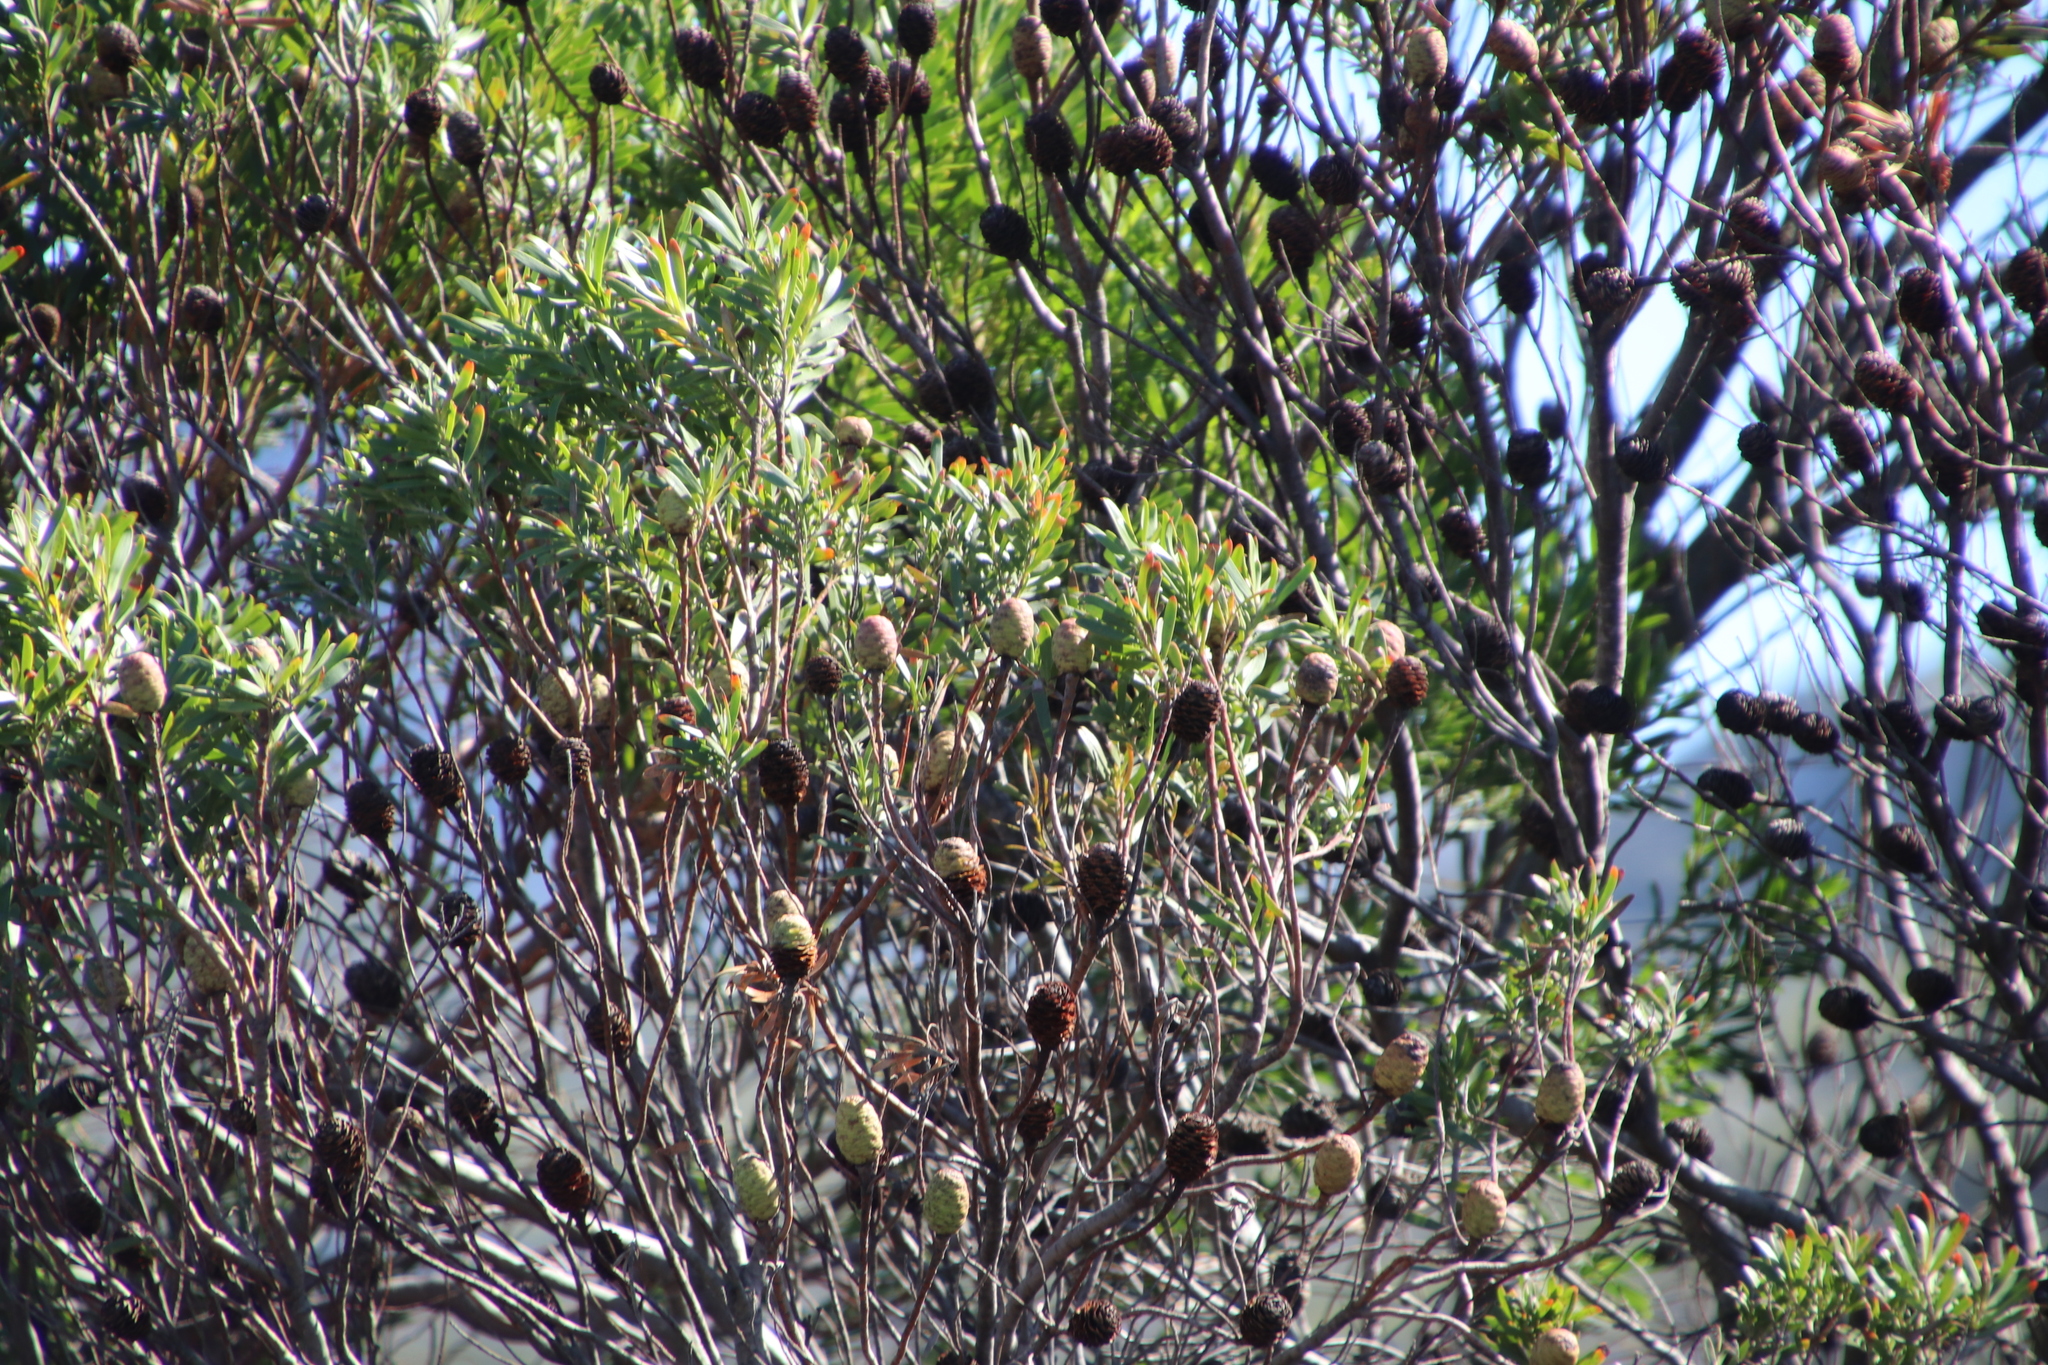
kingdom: Plantae
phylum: Tracheophyta
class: Magnoliopsida
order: Proteales
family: Proteaceae
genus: Leucadendron
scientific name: Leucadendron coniferum
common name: Dune conebush
